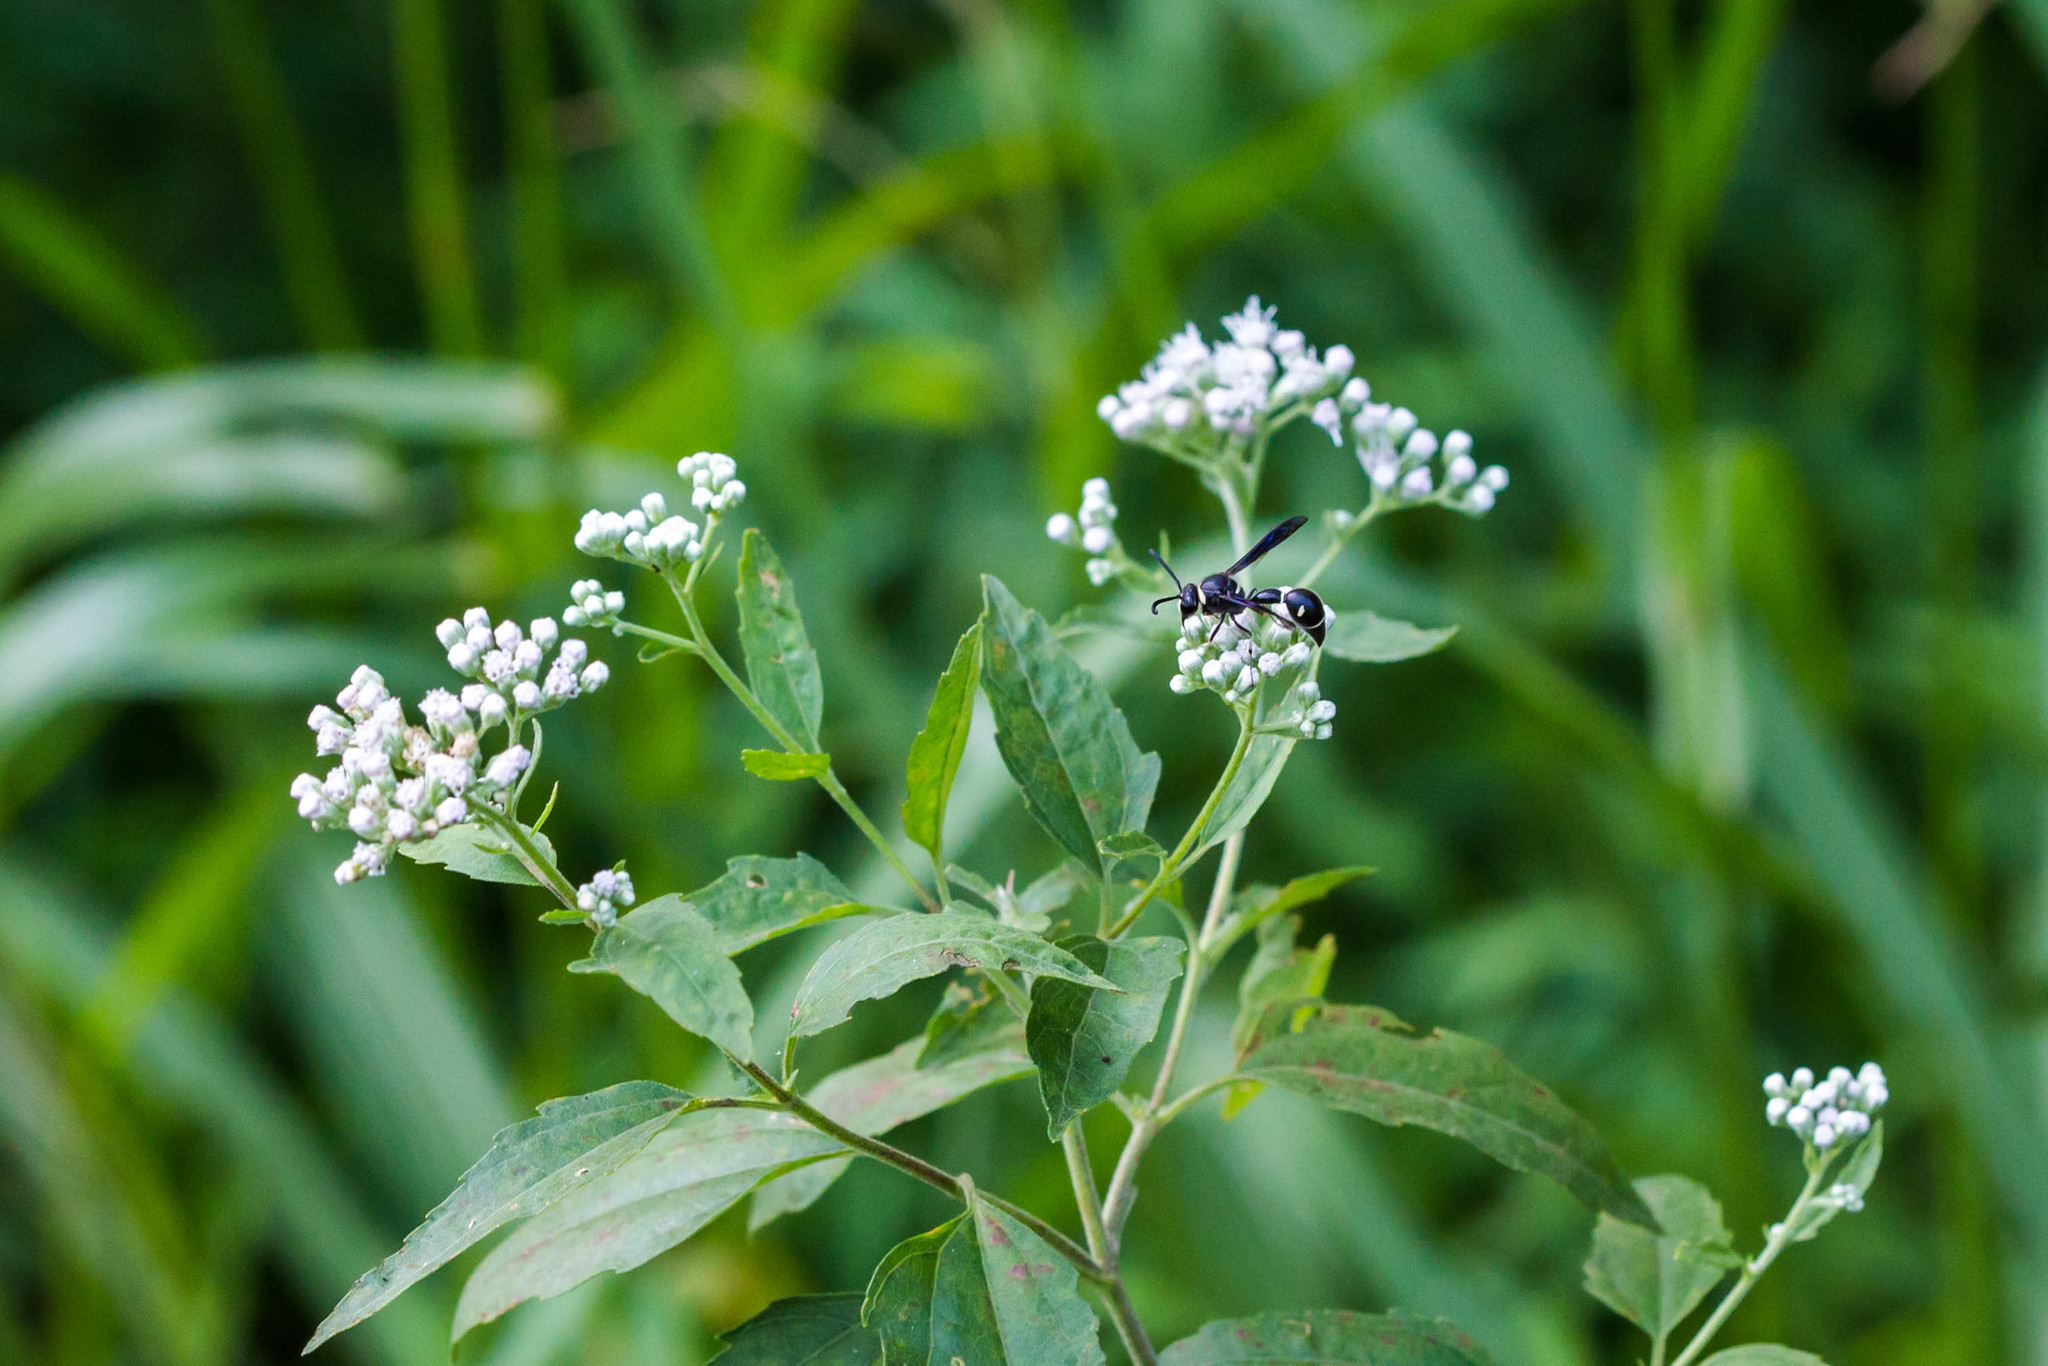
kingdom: Animalia
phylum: Arthropoda
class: Insecta
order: Hymenoptera
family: Vespidae
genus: Eumenes
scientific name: Eumenes fraternus
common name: Fraternal potter wasp
